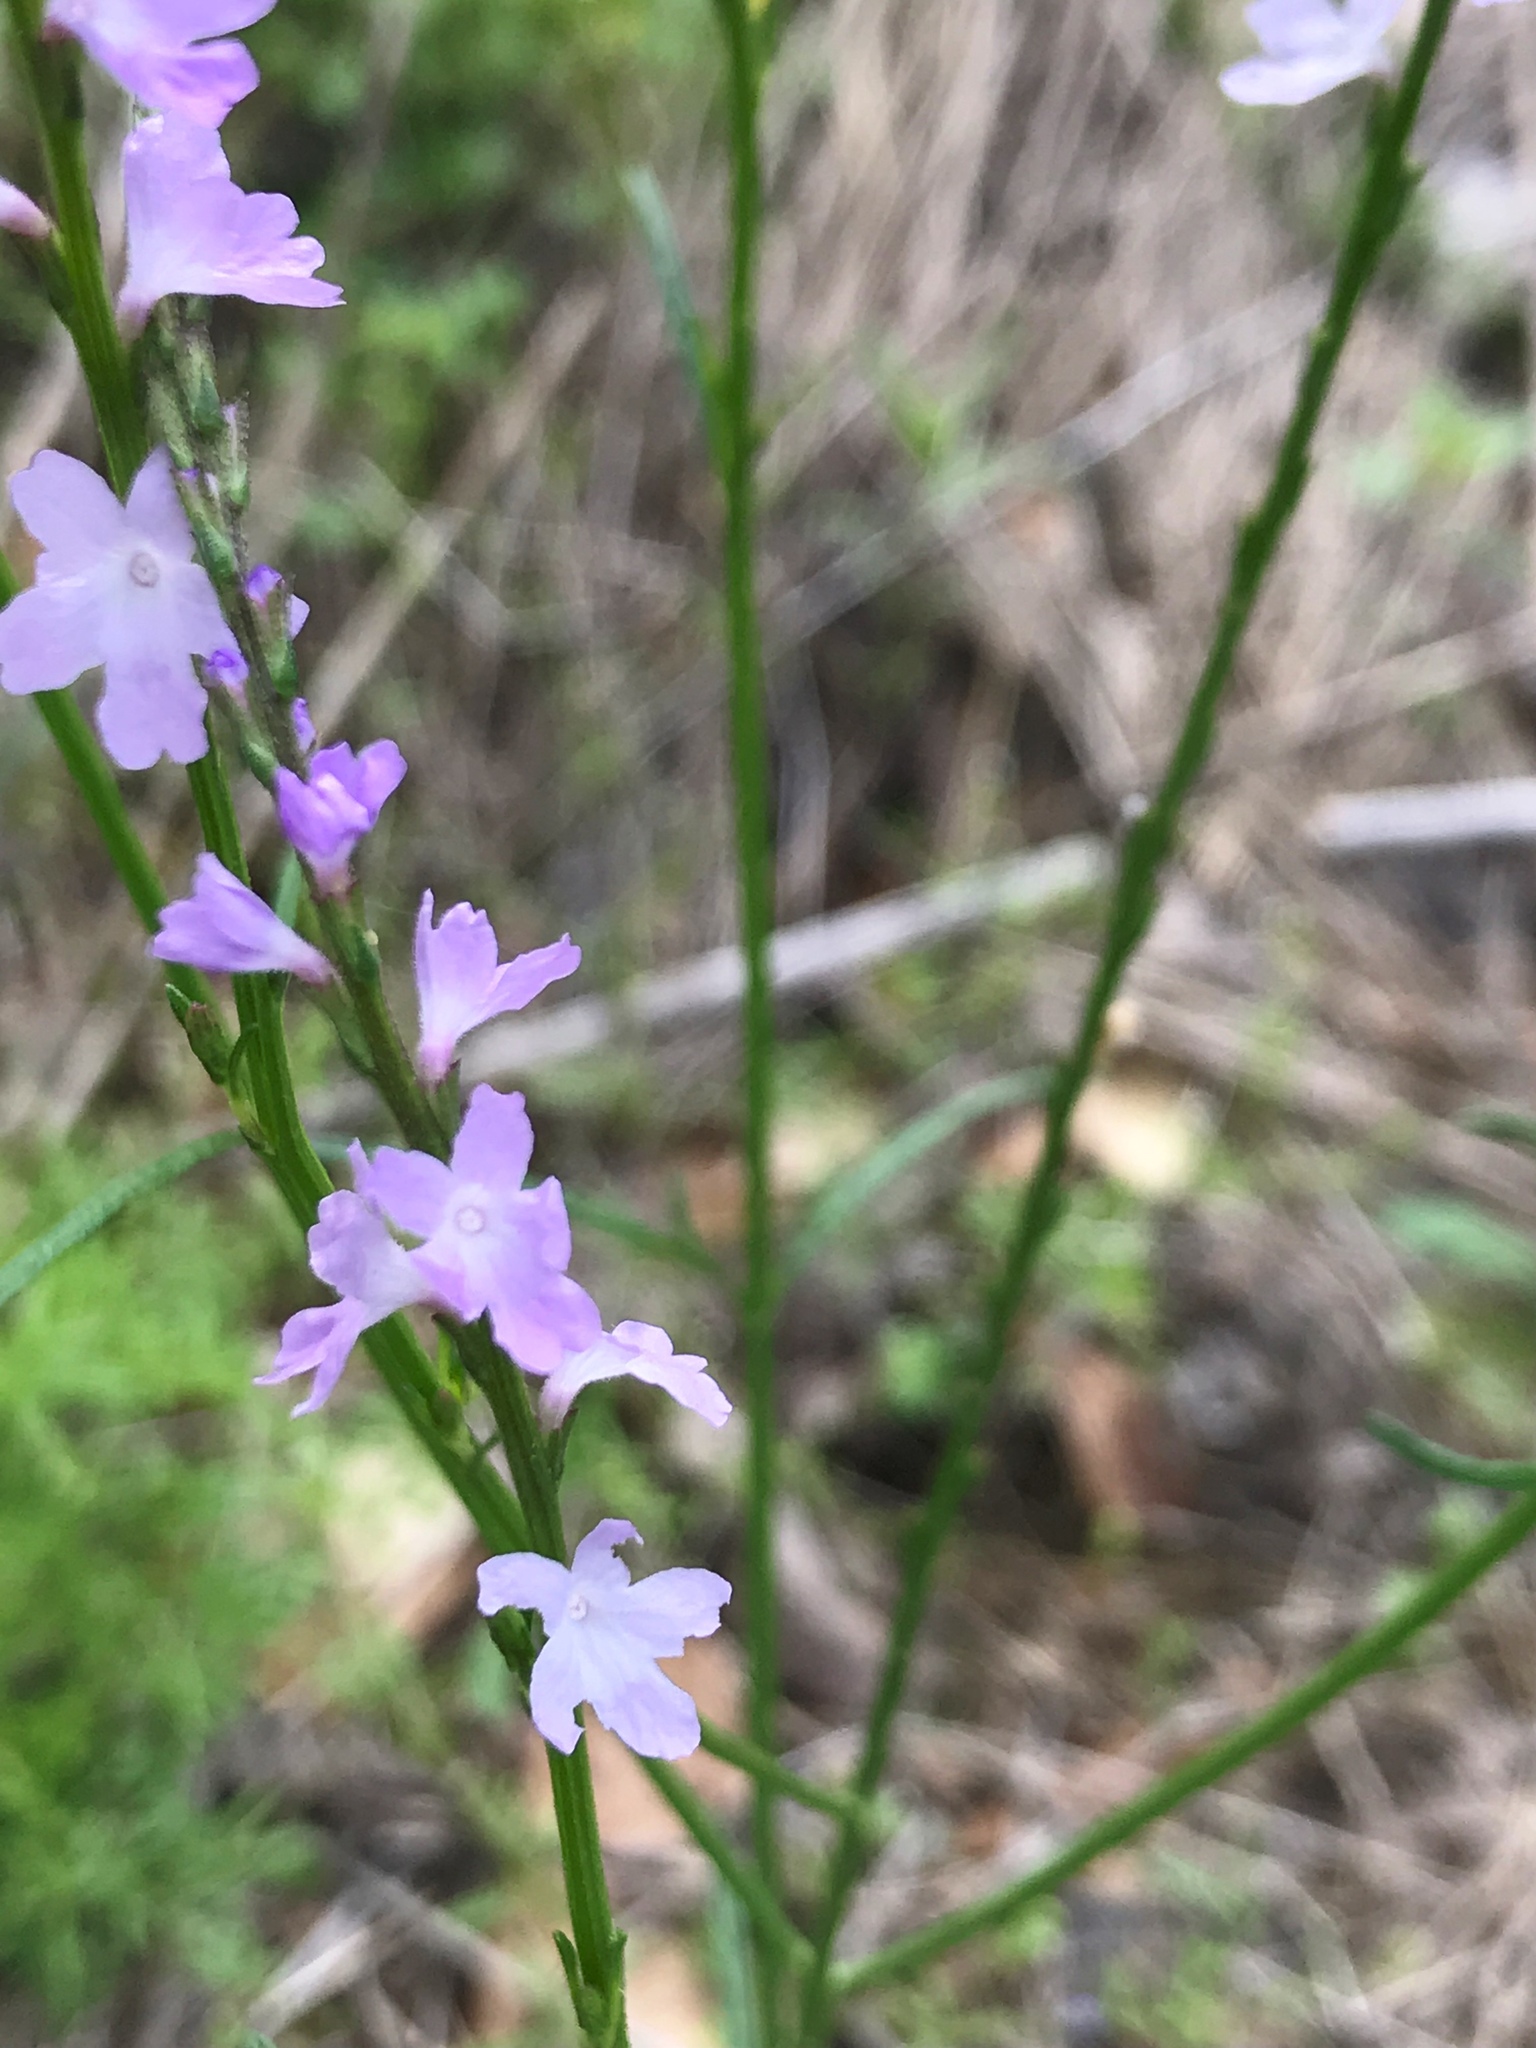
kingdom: Plantae
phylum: Tracheophyta
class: Magnoliopsida
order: Lamiales
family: Verbenaceae
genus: Verbena
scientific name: Verbena halei
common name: Texas vervain
